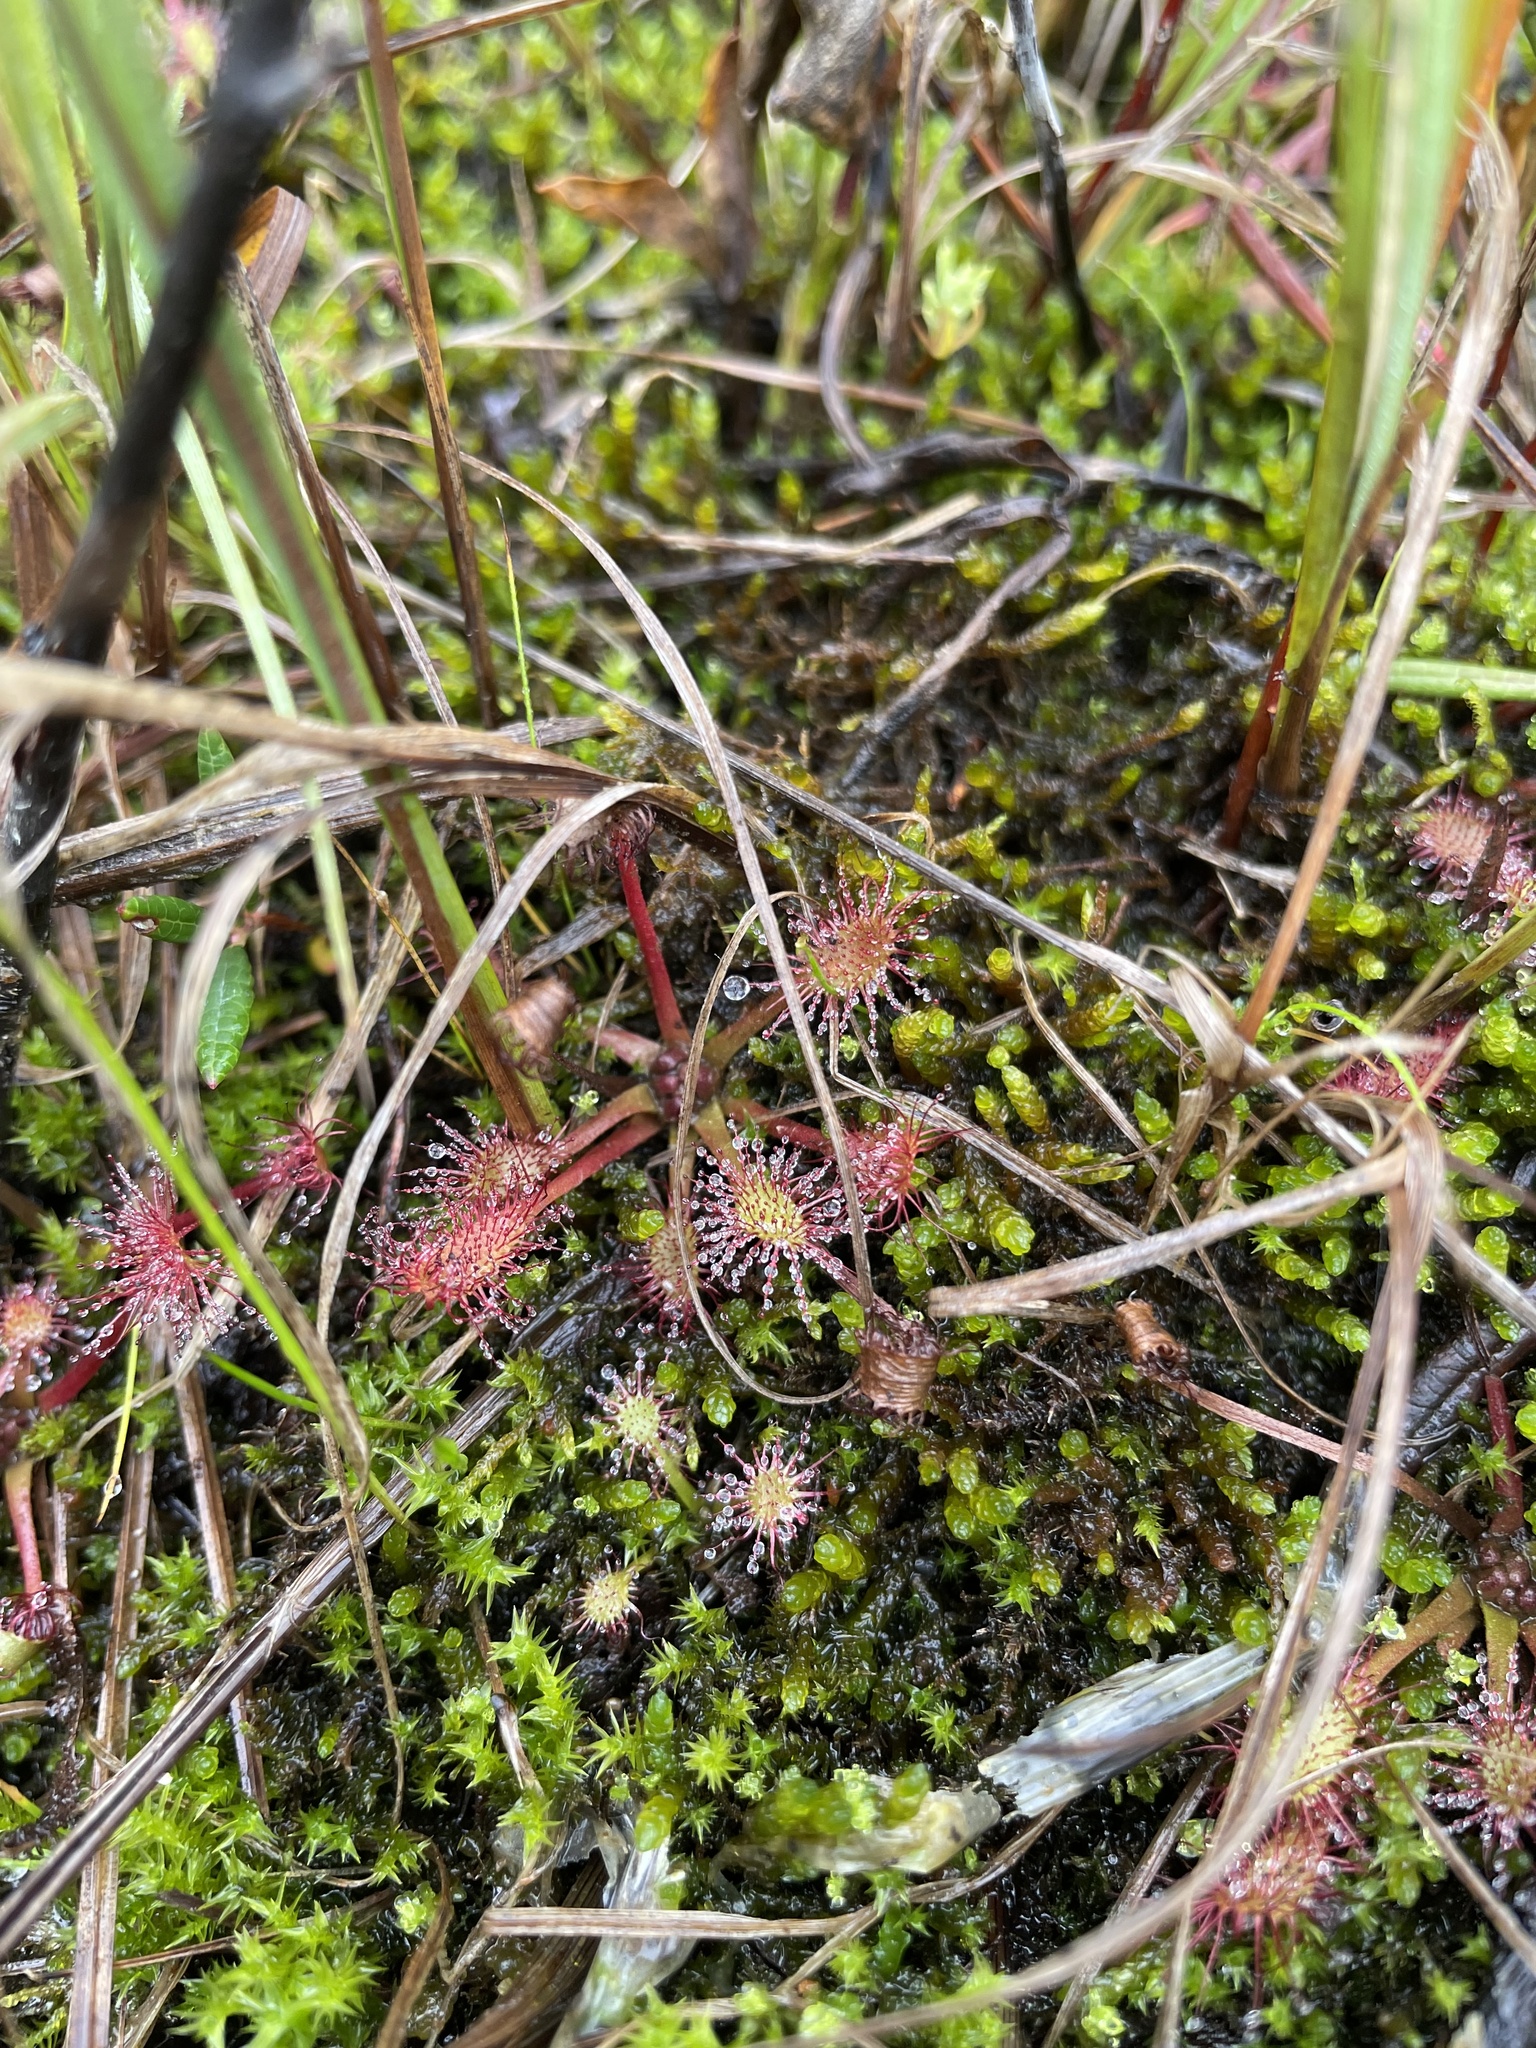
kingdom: Plantae
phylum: Tracheophyta
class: Magnoliopsida
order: Caryophyllales
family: Droseraceae
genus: Drosera
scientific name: Drosera anglica
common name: Great sundew
